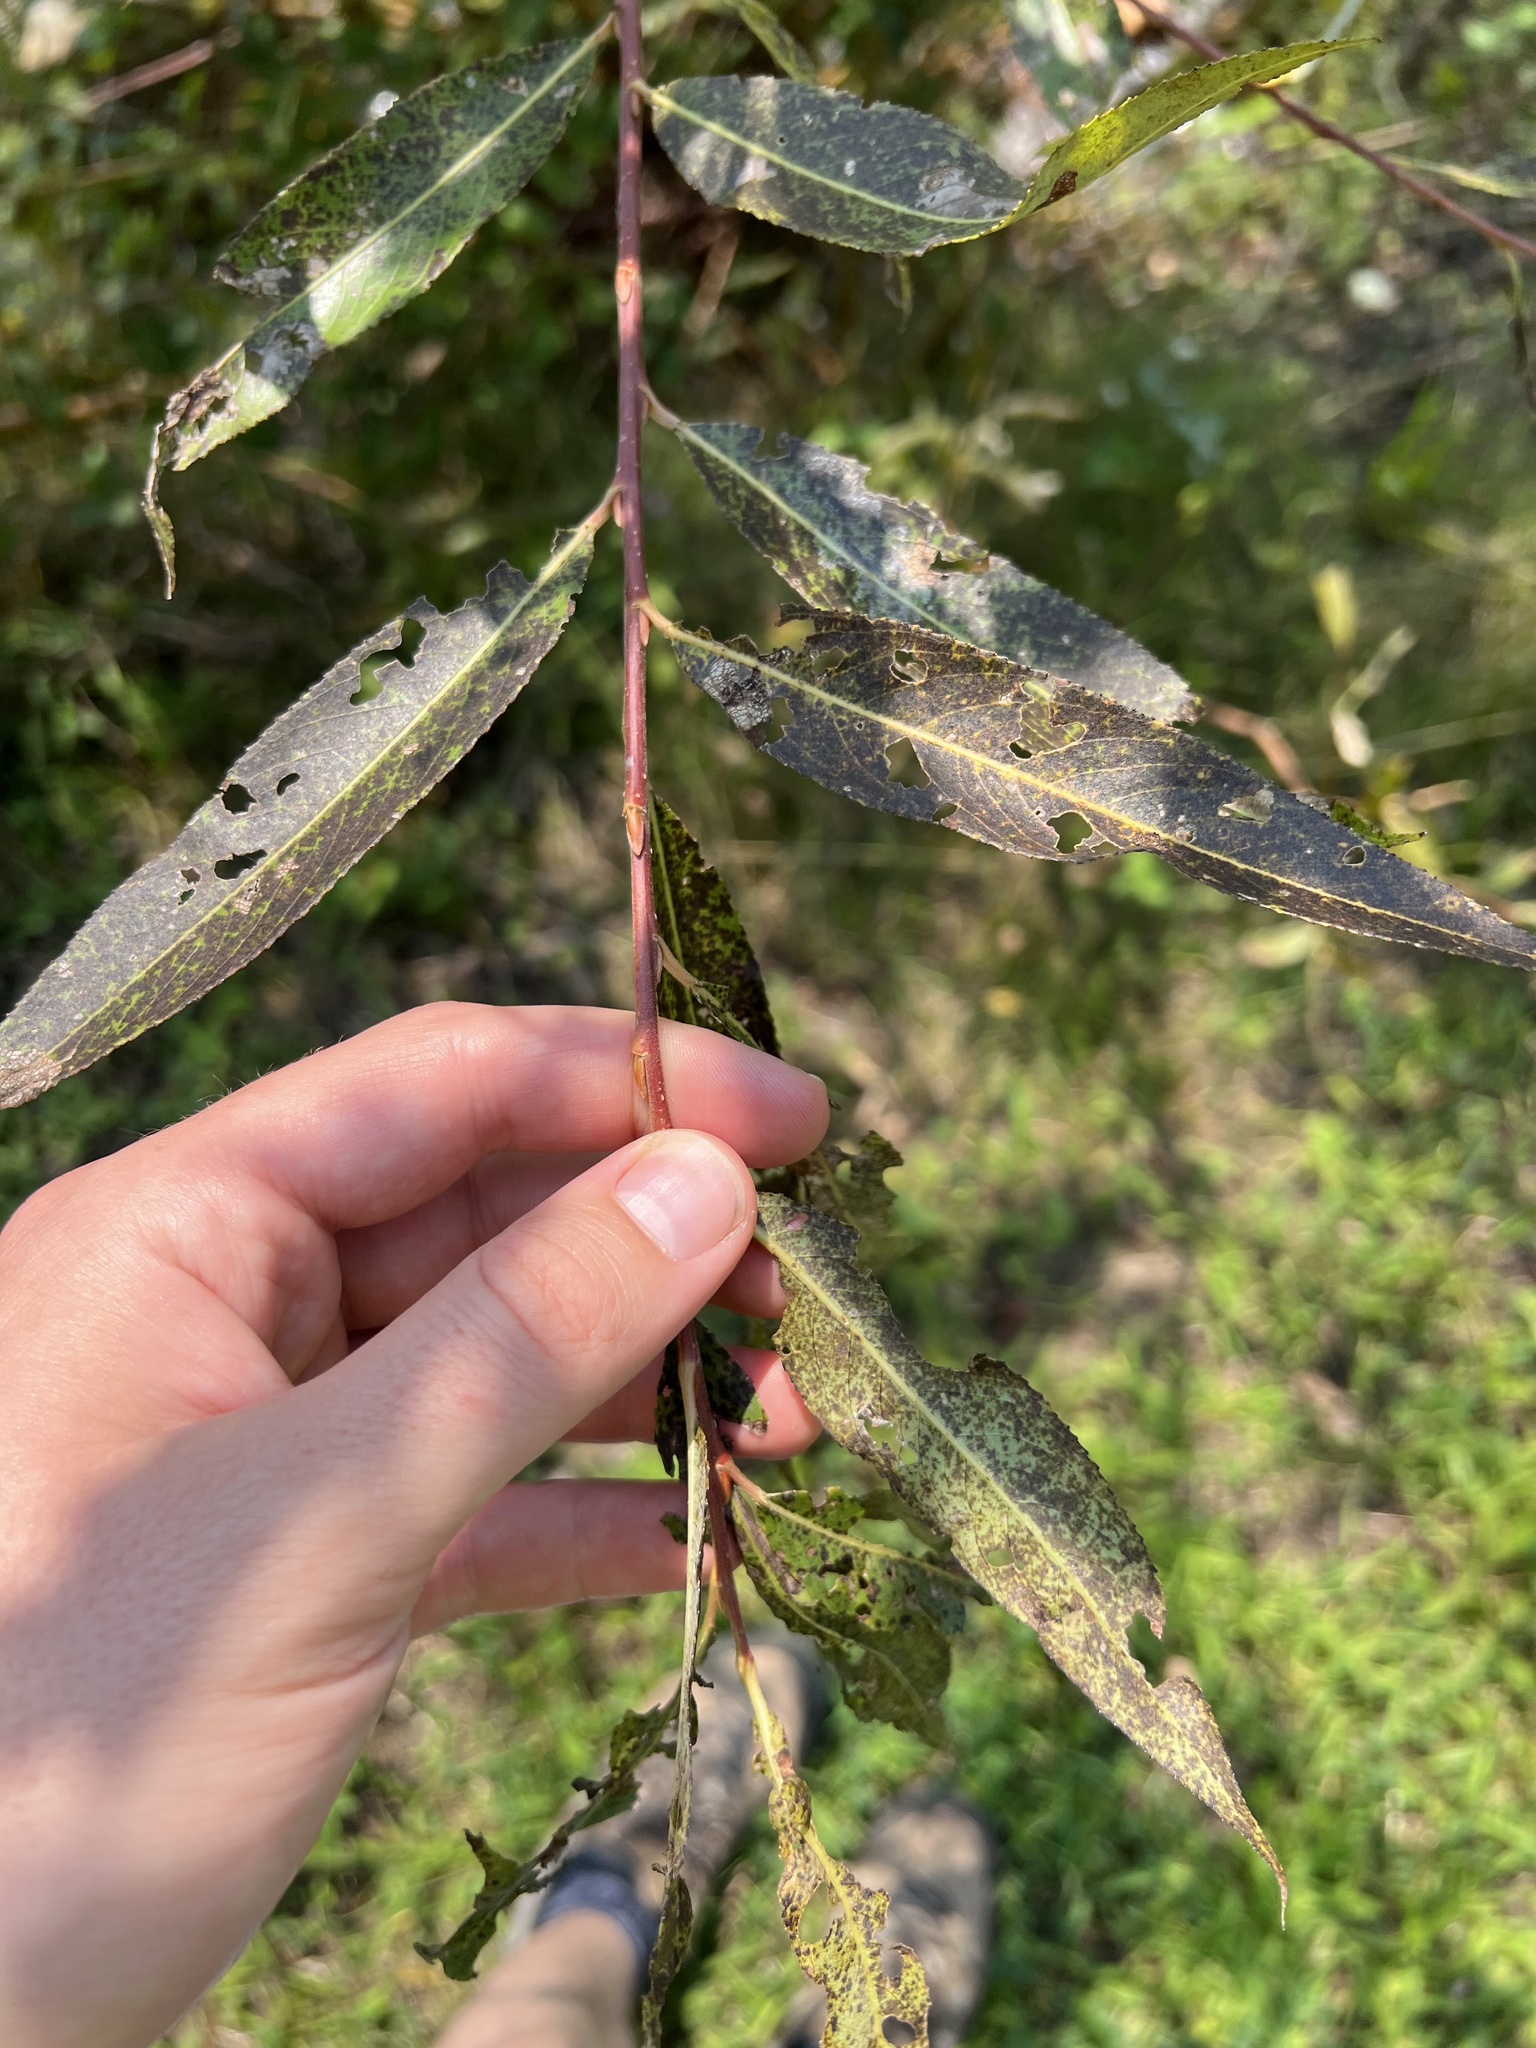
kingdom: Plantae
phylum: Tracheophyta
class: Magnoliopsida
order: Malpighiales
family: Salicaceae
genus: Salix
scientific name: Salix fragilis
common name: Crack willow
